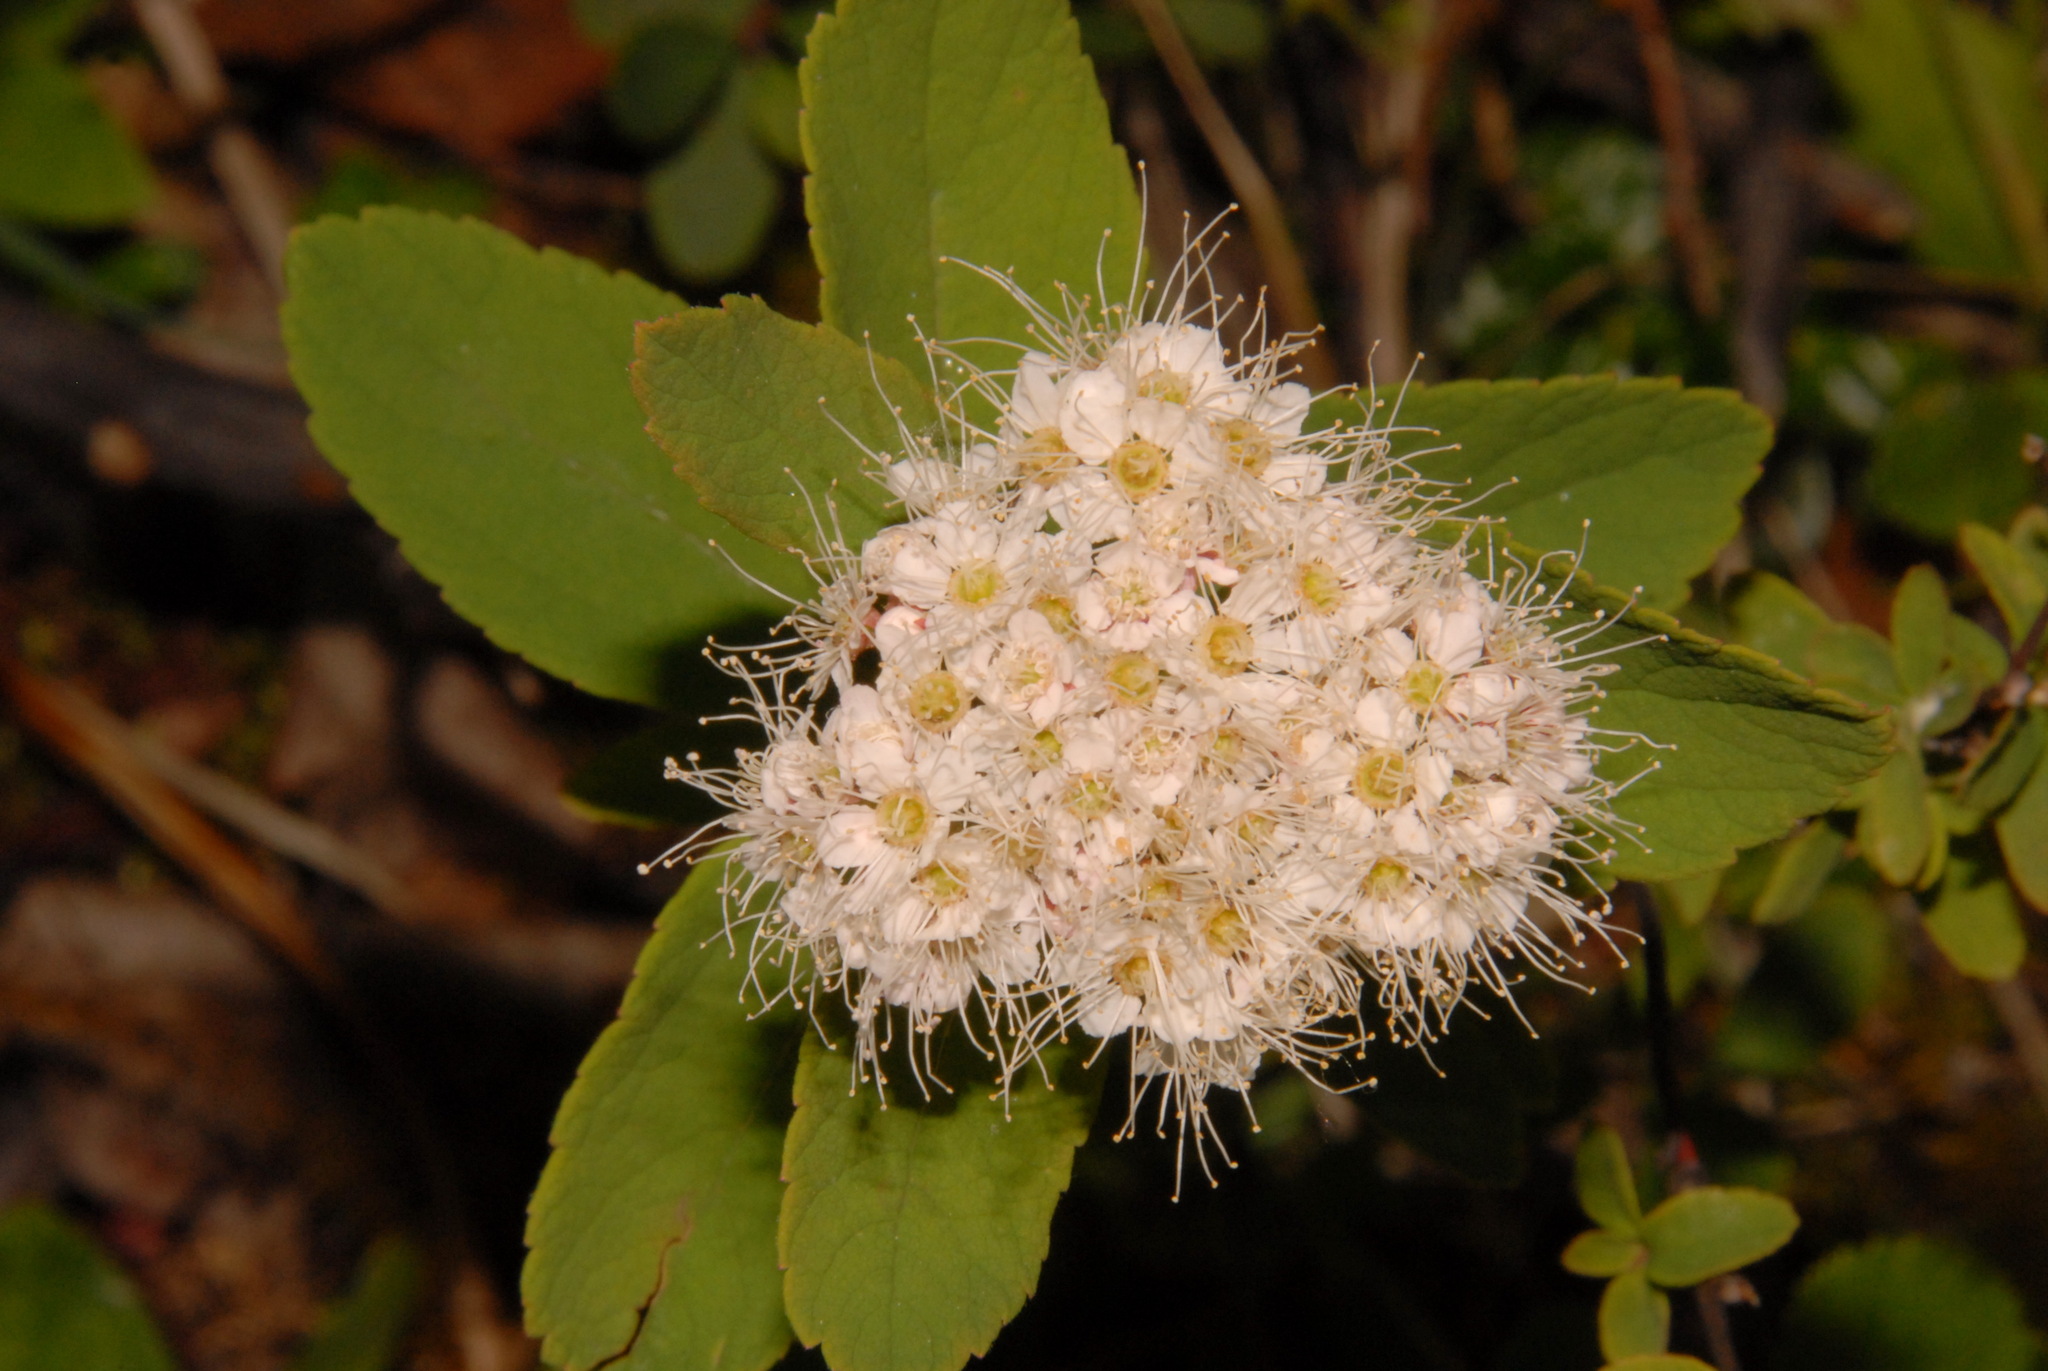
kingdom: Plantae
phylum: Tracheophyta
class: Magnoliopsida
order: Rosales
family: Rosaceae
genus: Spiraea
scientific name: Spiraea stevenii
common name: Steven's meadowsweet
